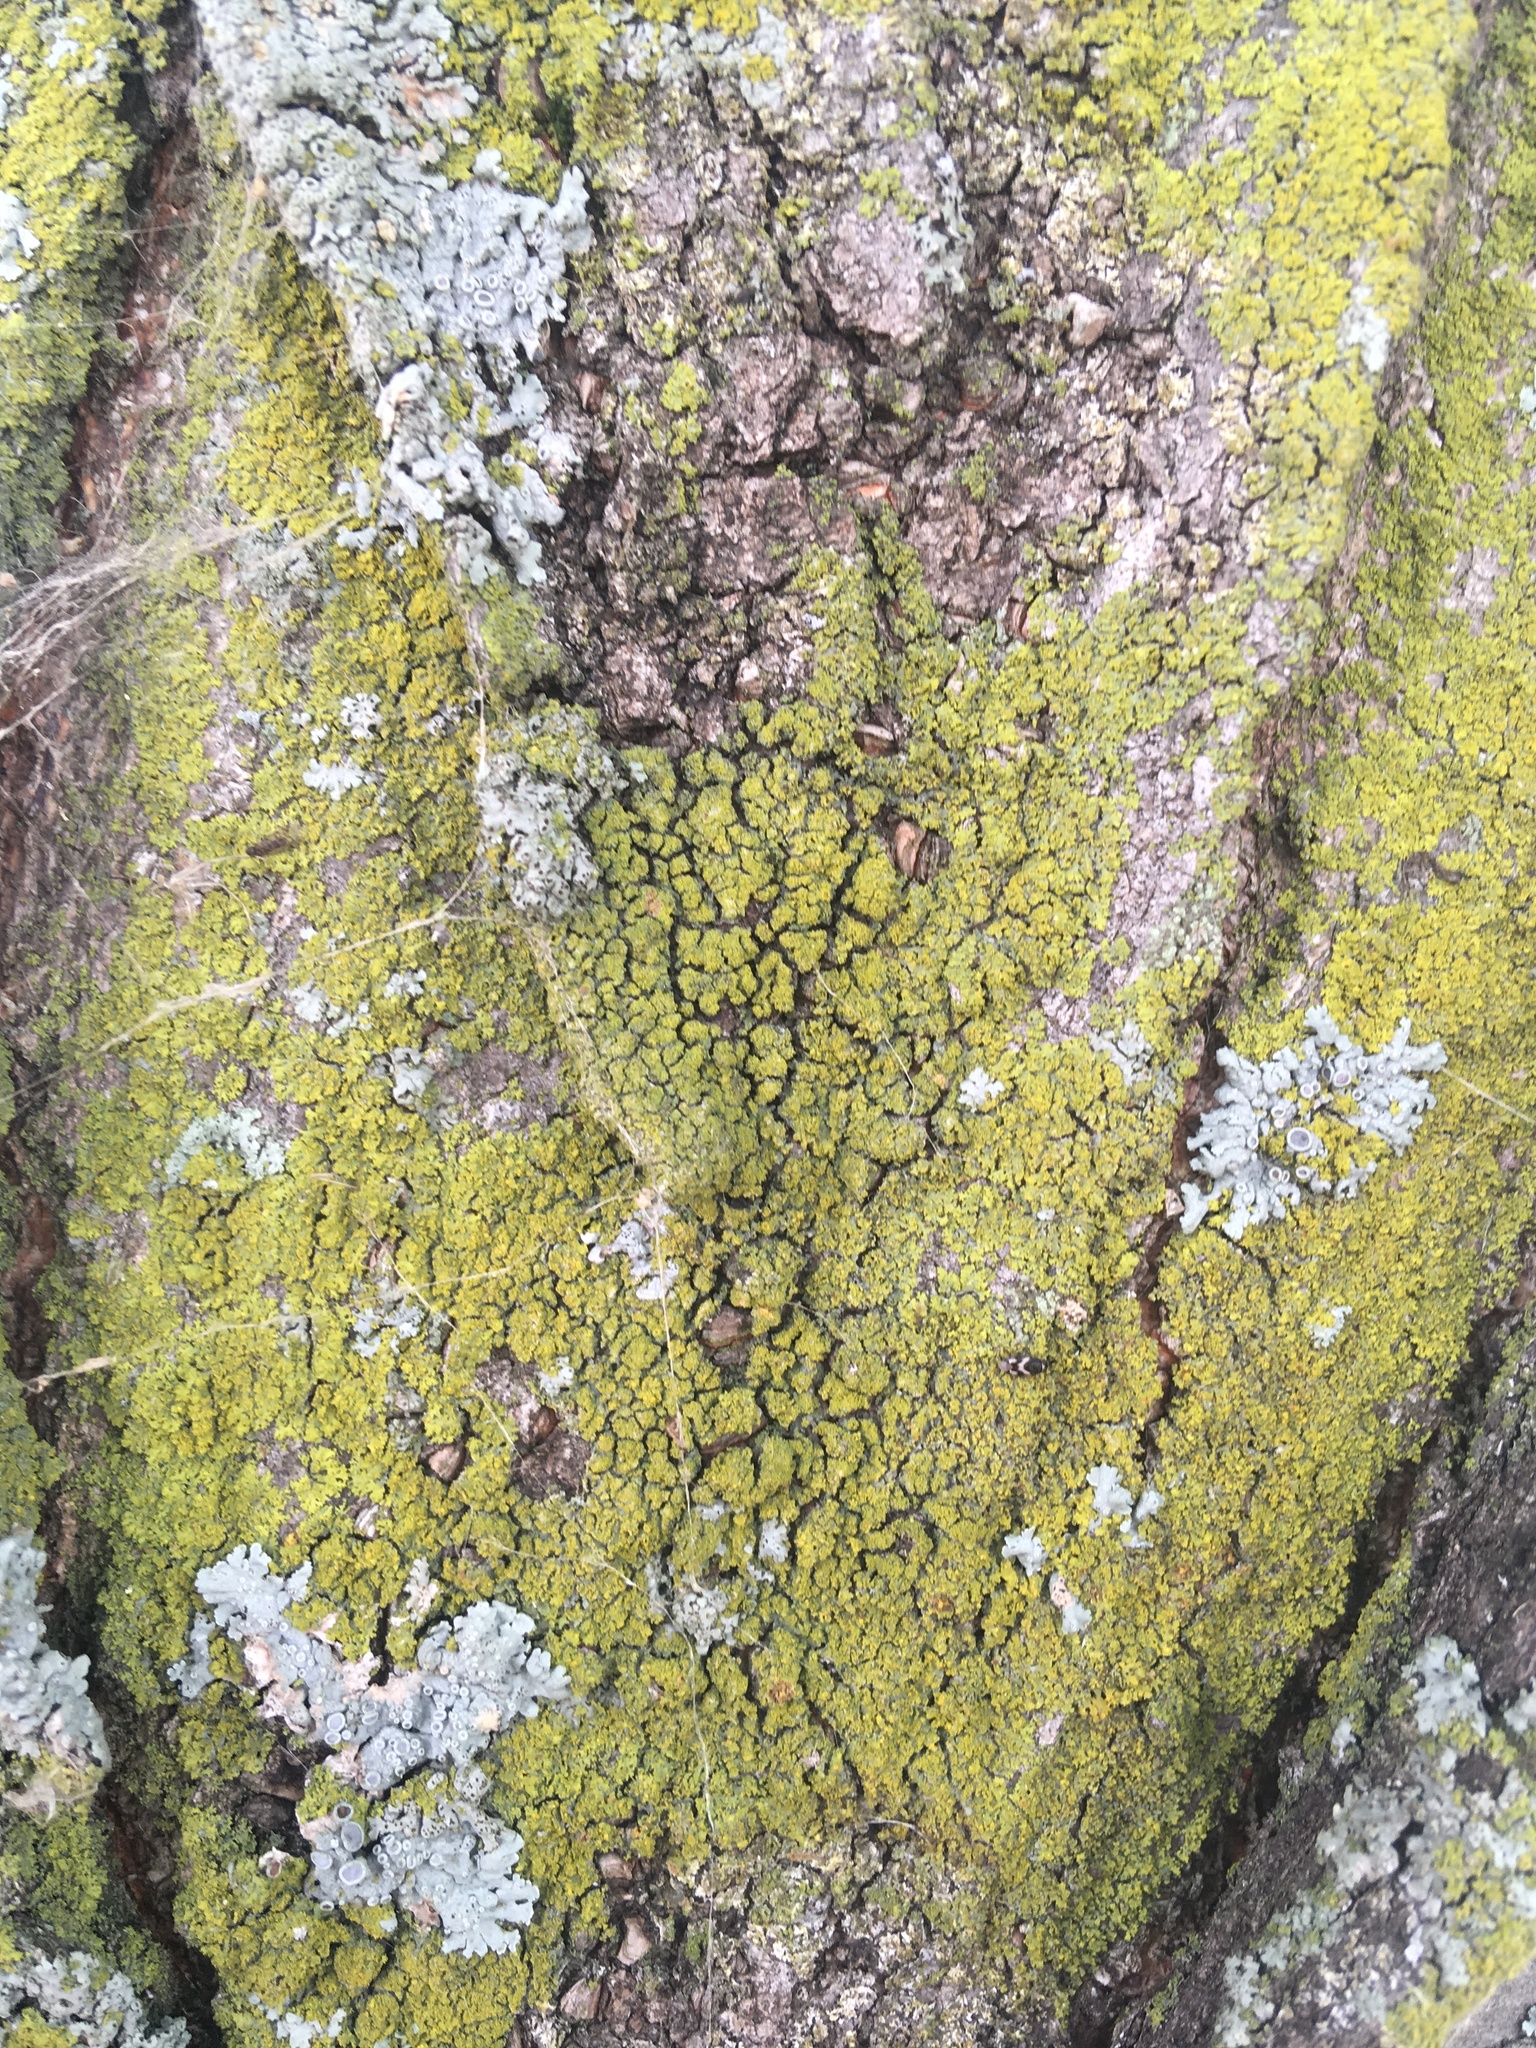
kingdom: Fungi
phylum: Ascomycota
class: Candelariomycetes
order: Candelariales
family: Candelariaceae
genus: Candelaria
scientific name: Candelaria concolor
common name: Candleflame lichen
